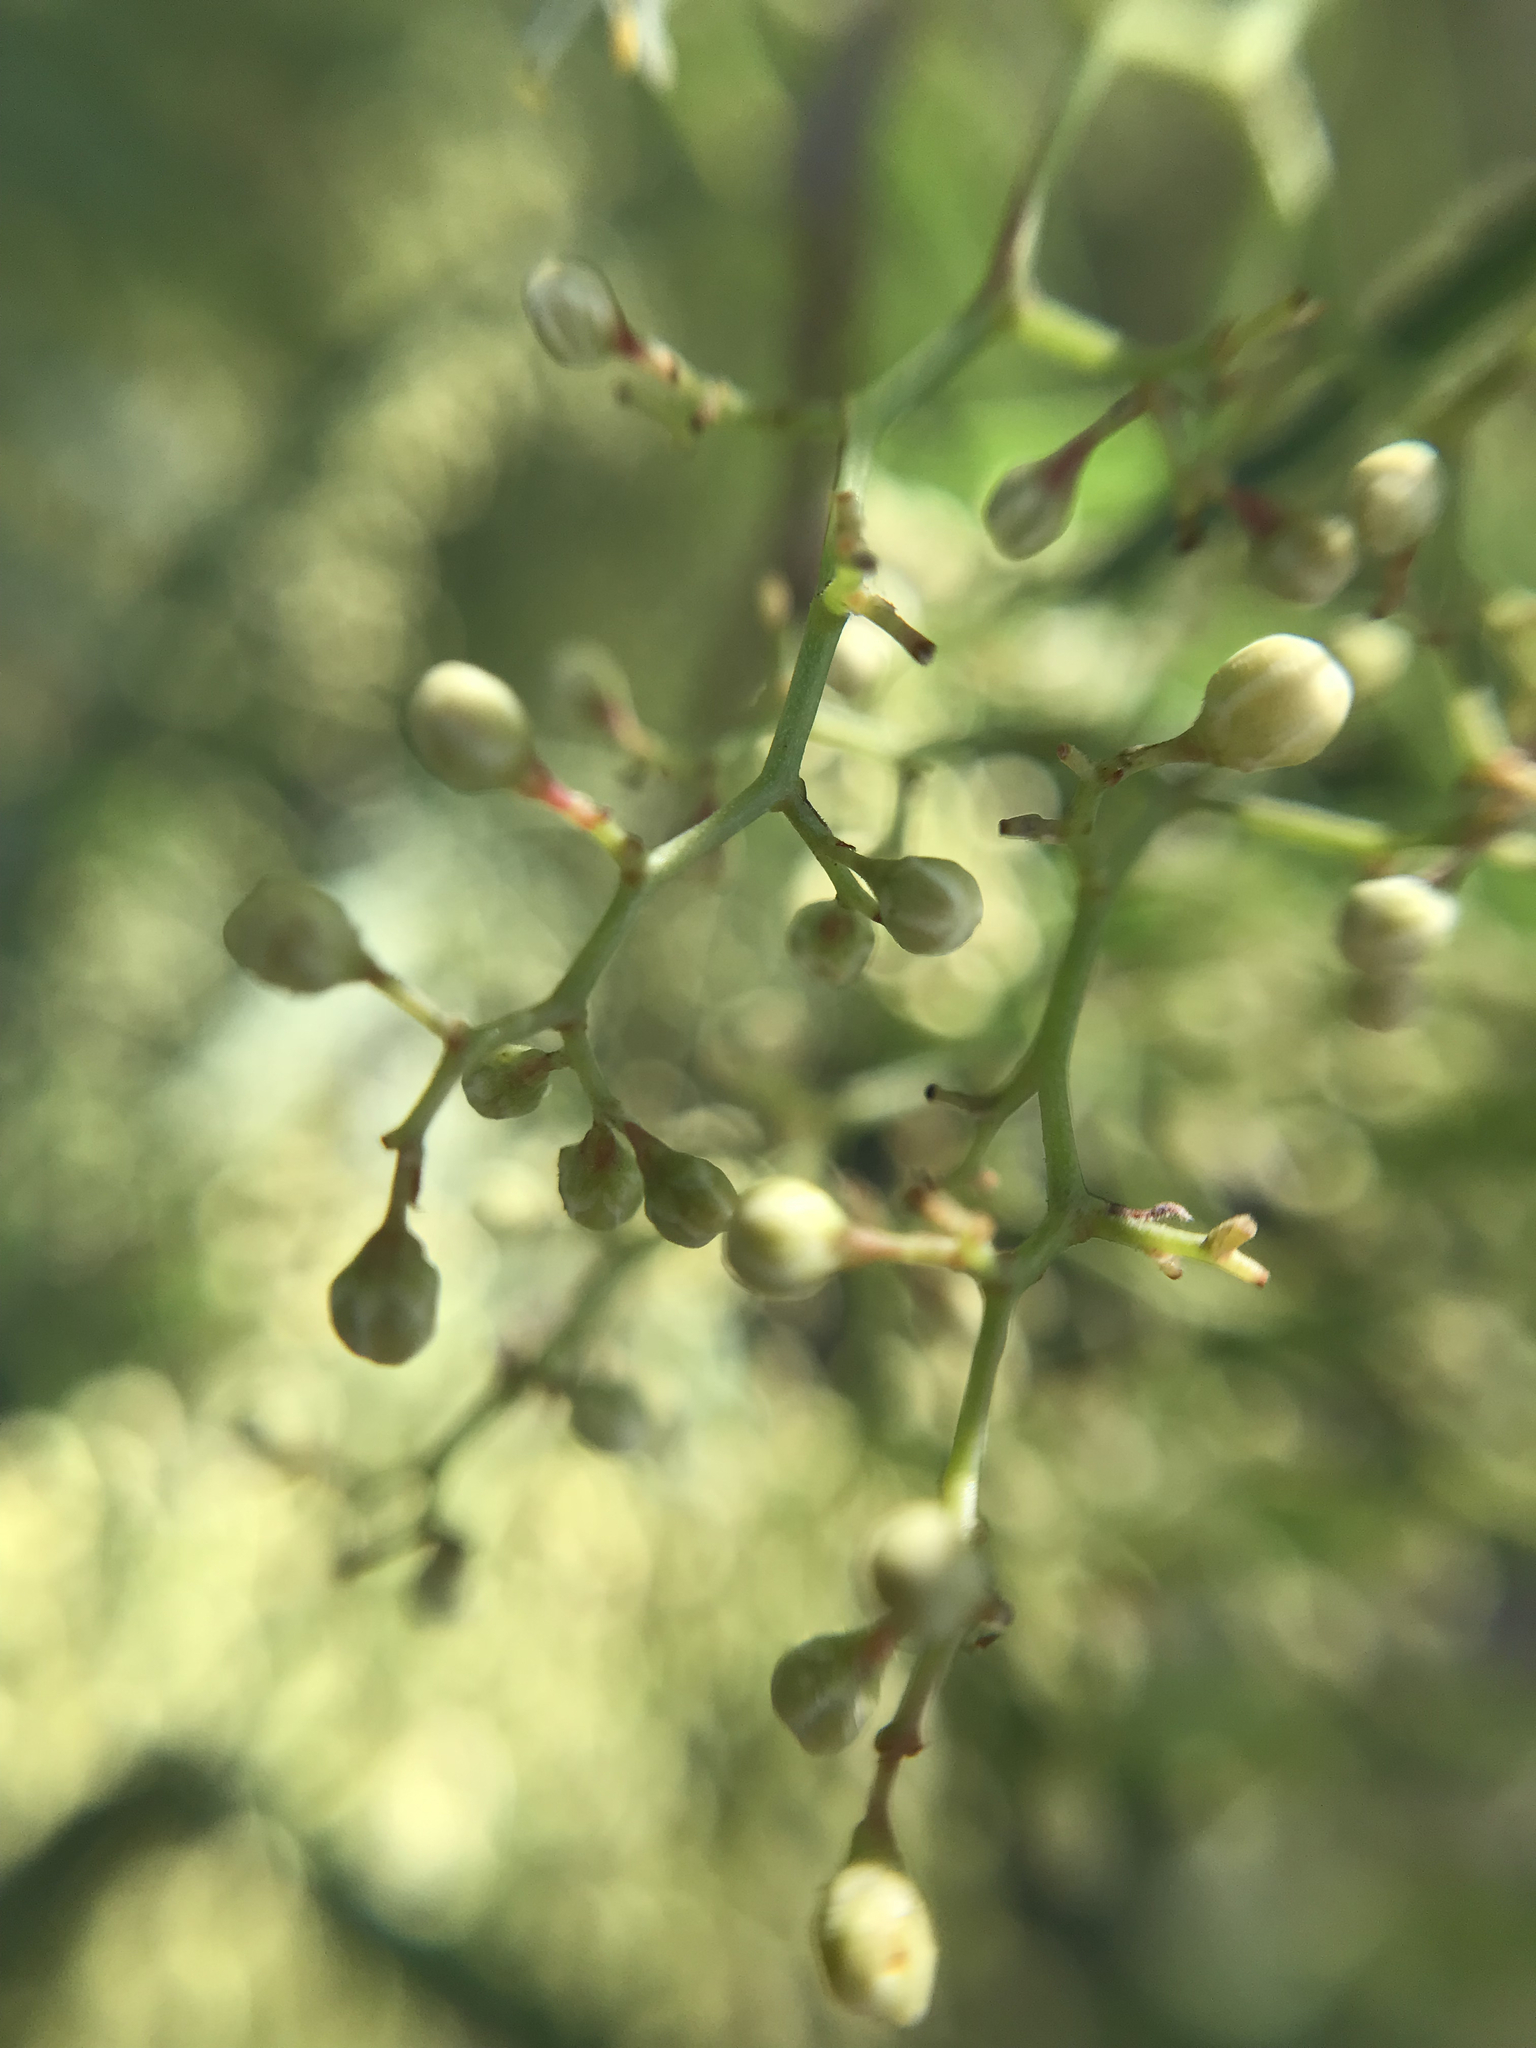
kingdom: Plantae
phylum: Tracheophyta
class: Magnoliopsida
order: Sapindales
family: Anacardiaceae
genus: Schinus
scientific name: Schinus molle
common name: Peruvian peppertree
